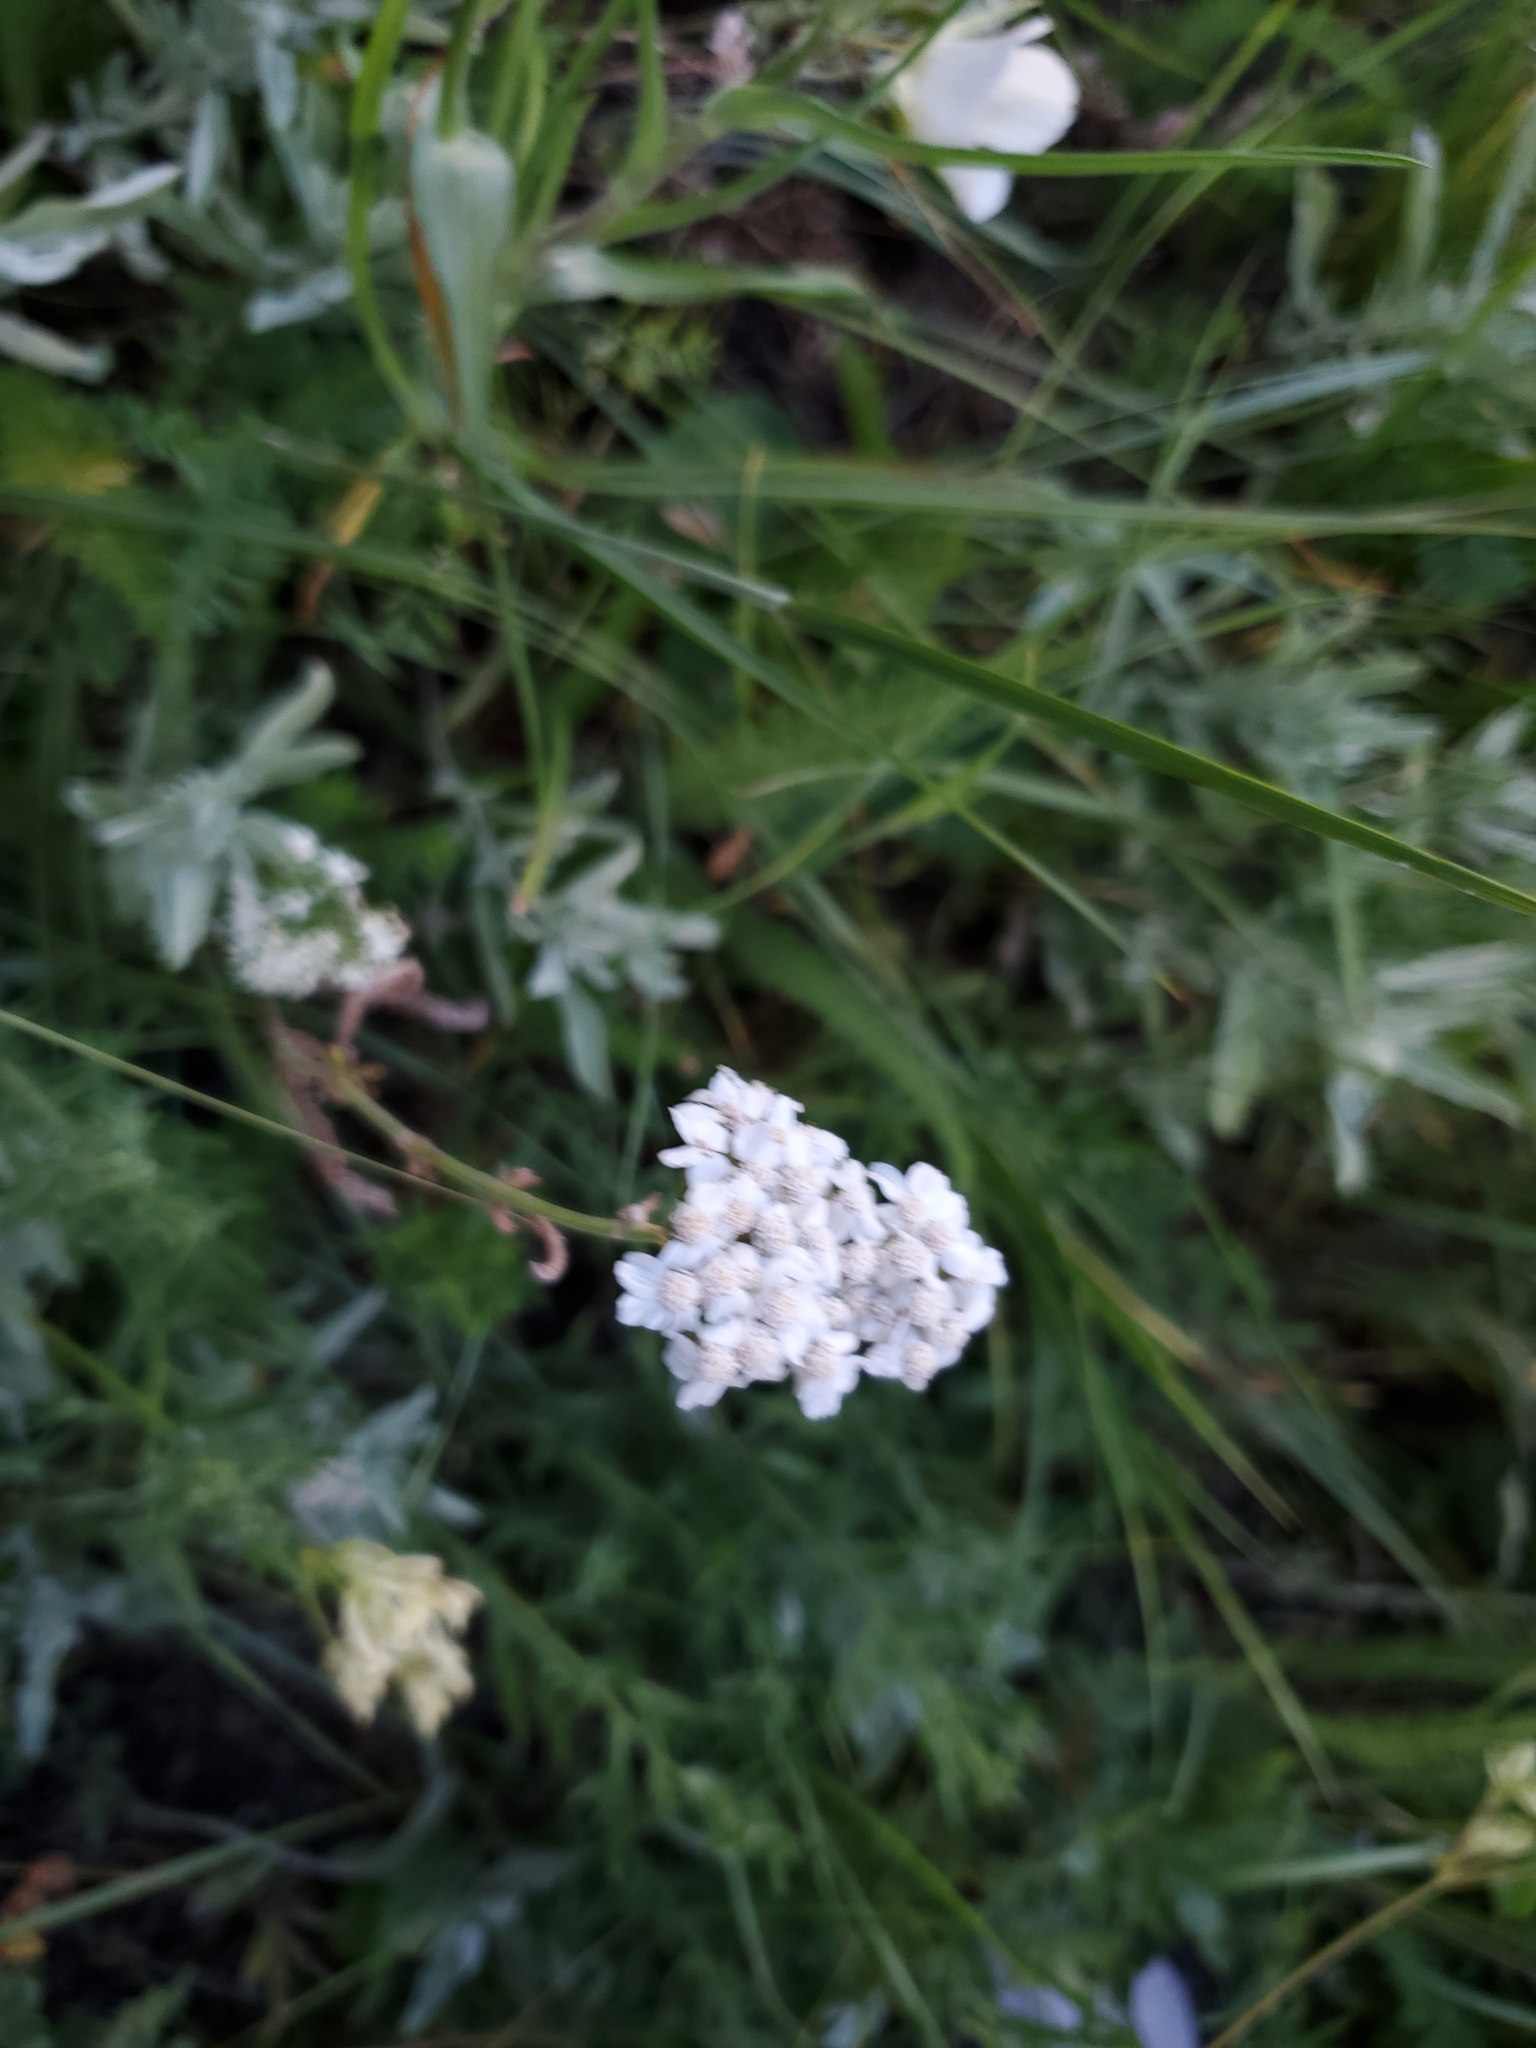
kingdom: Plantae
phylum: Tracheophyta
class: Magnoliopsida
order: Asterales
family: Asteraceae
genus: Achillea
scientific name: Achillea millefolium
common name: Yarrow
